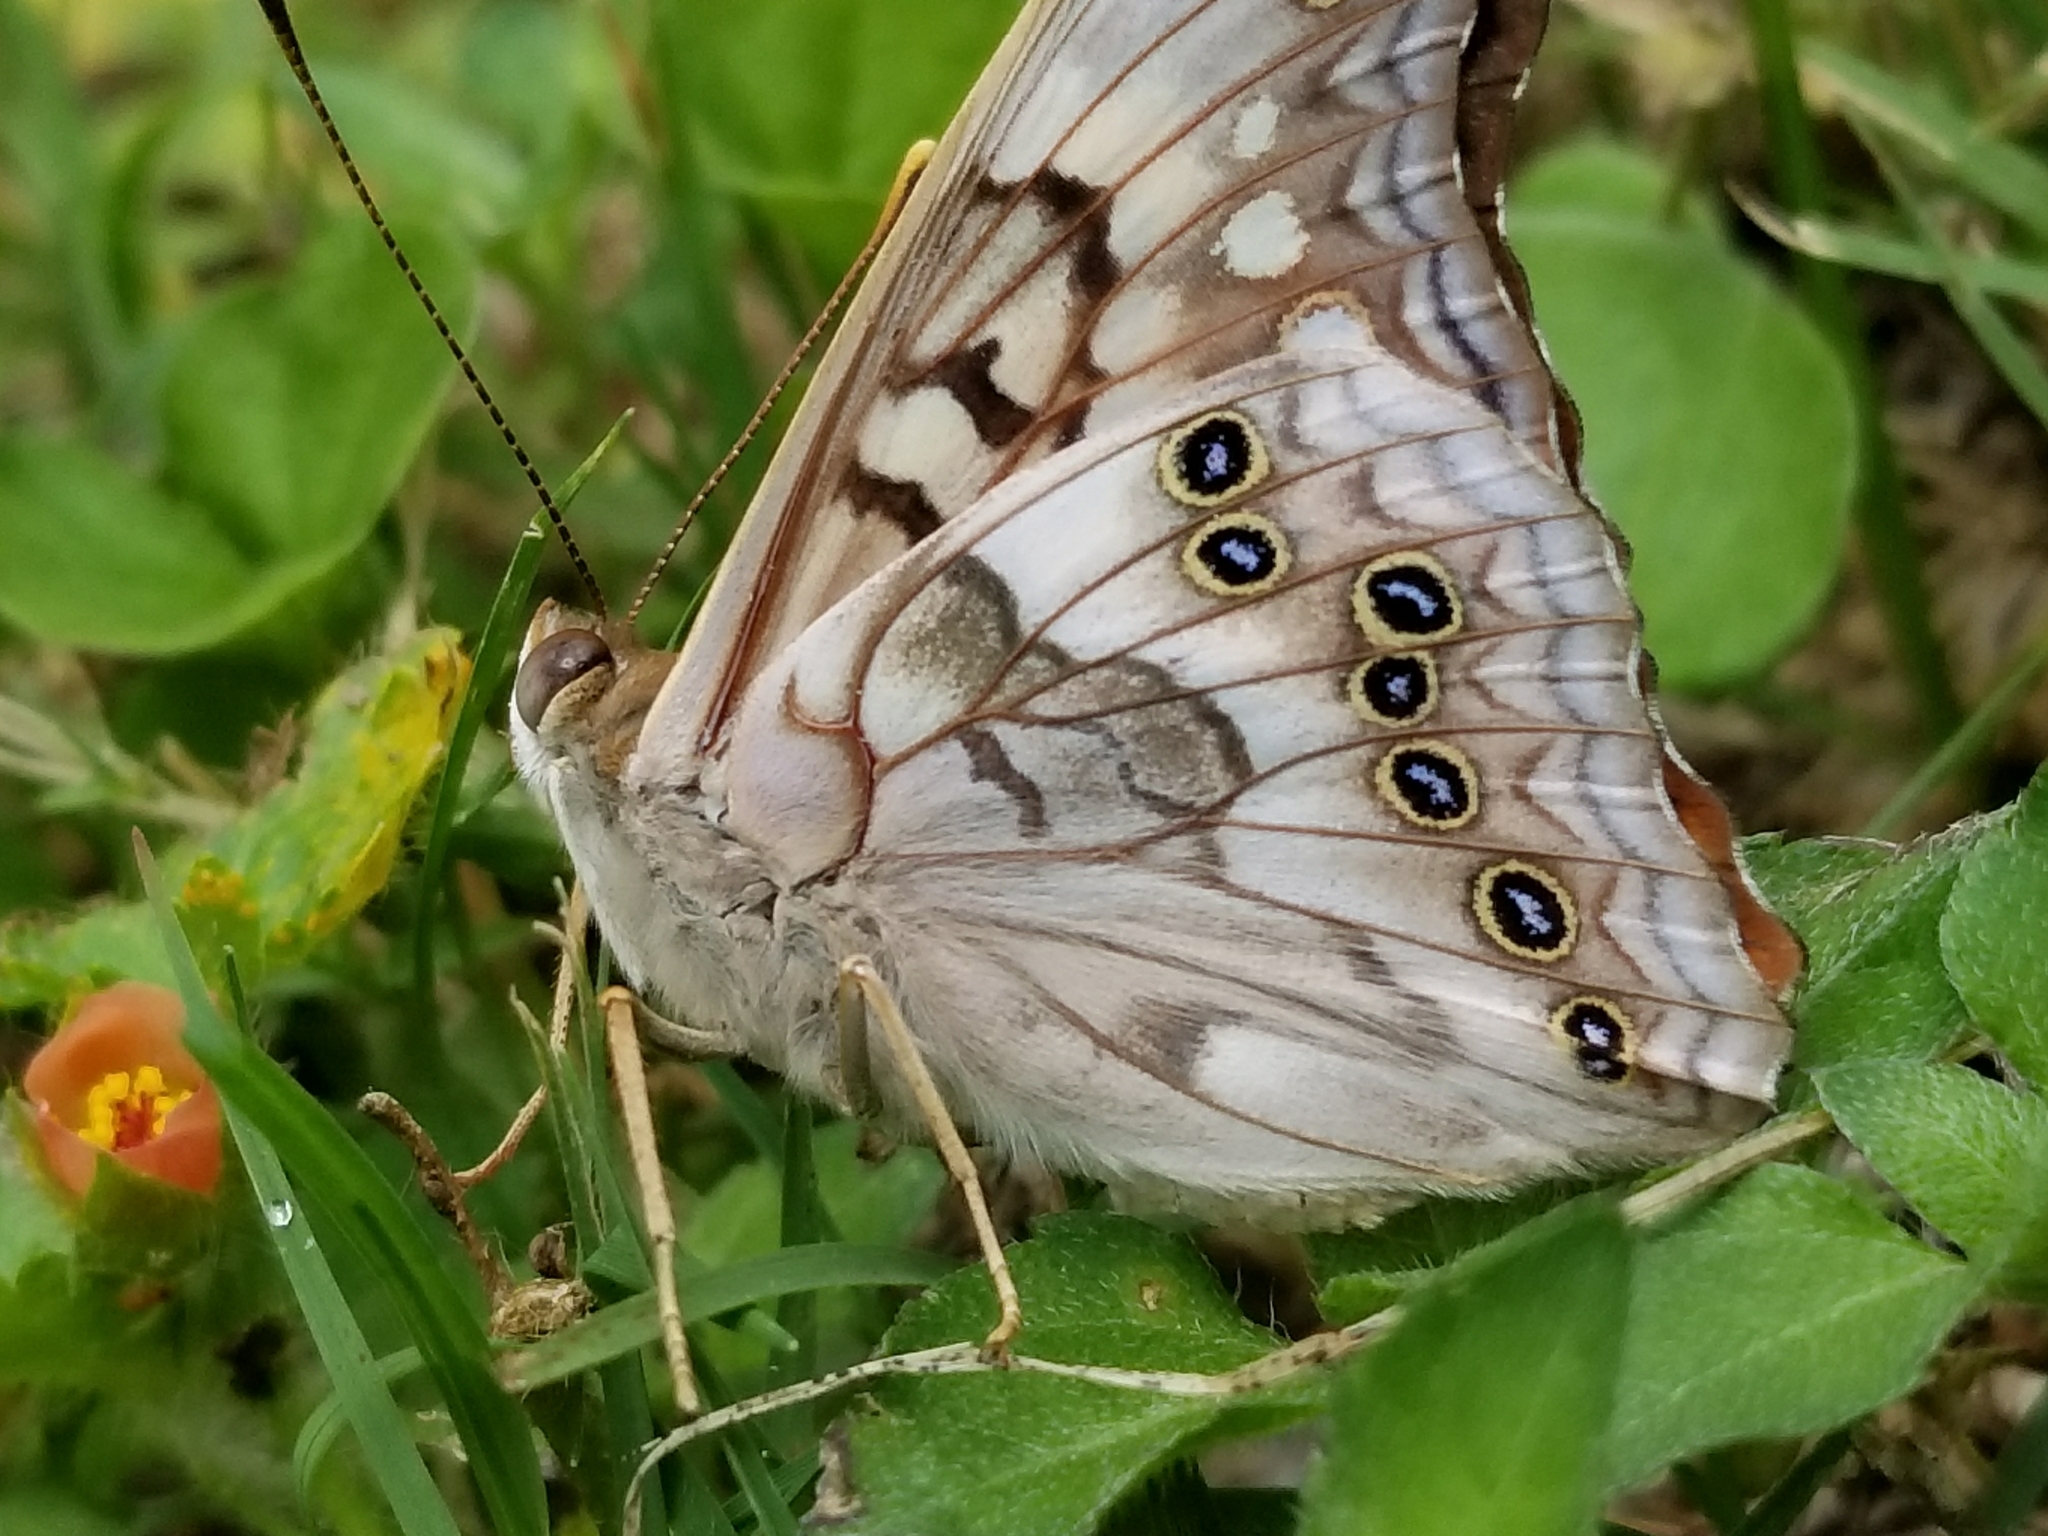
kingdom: Animalia
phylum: Arthropoda
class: Insecta
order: Lepidoptera
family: Nymphalidae
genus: Asterocampa
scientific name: Asterocampa clyton
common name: Tawny emperor
